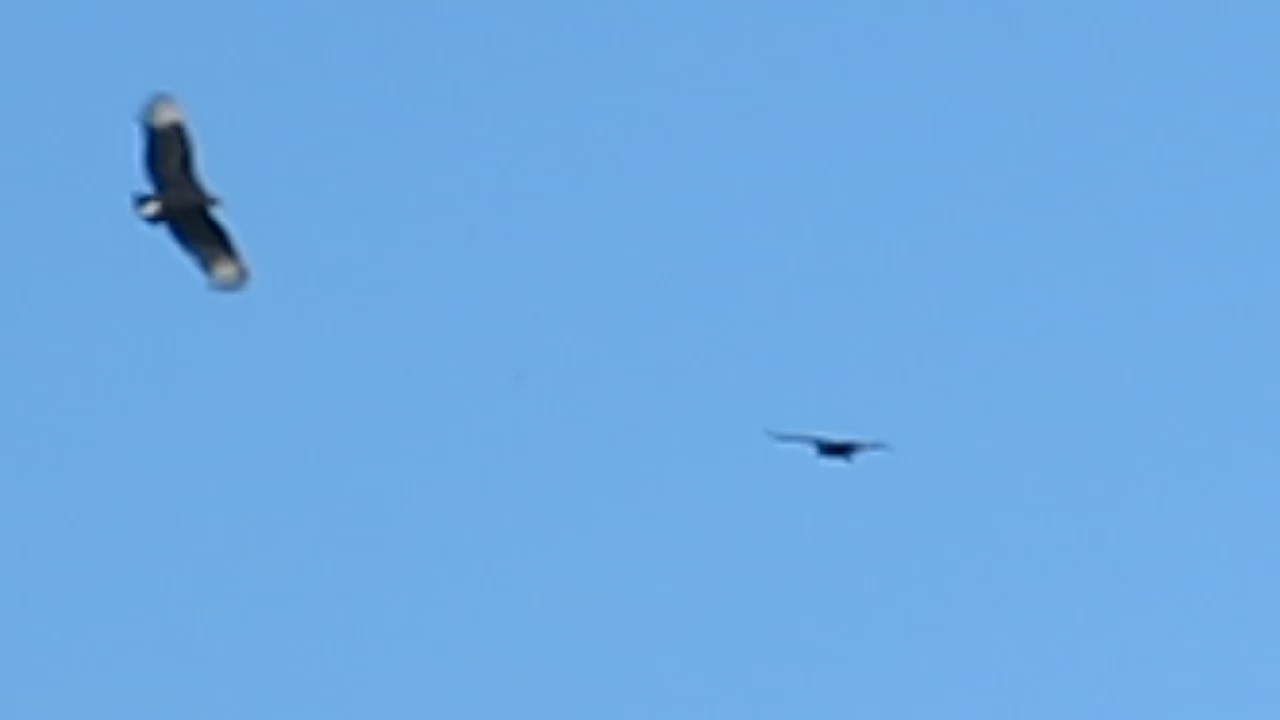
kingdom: Animalia
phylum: Chordata
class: Aves
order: Accipitriformes
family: Cathartidae
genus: Coragyps
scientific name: Coragyps atratus
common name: Black vulture
